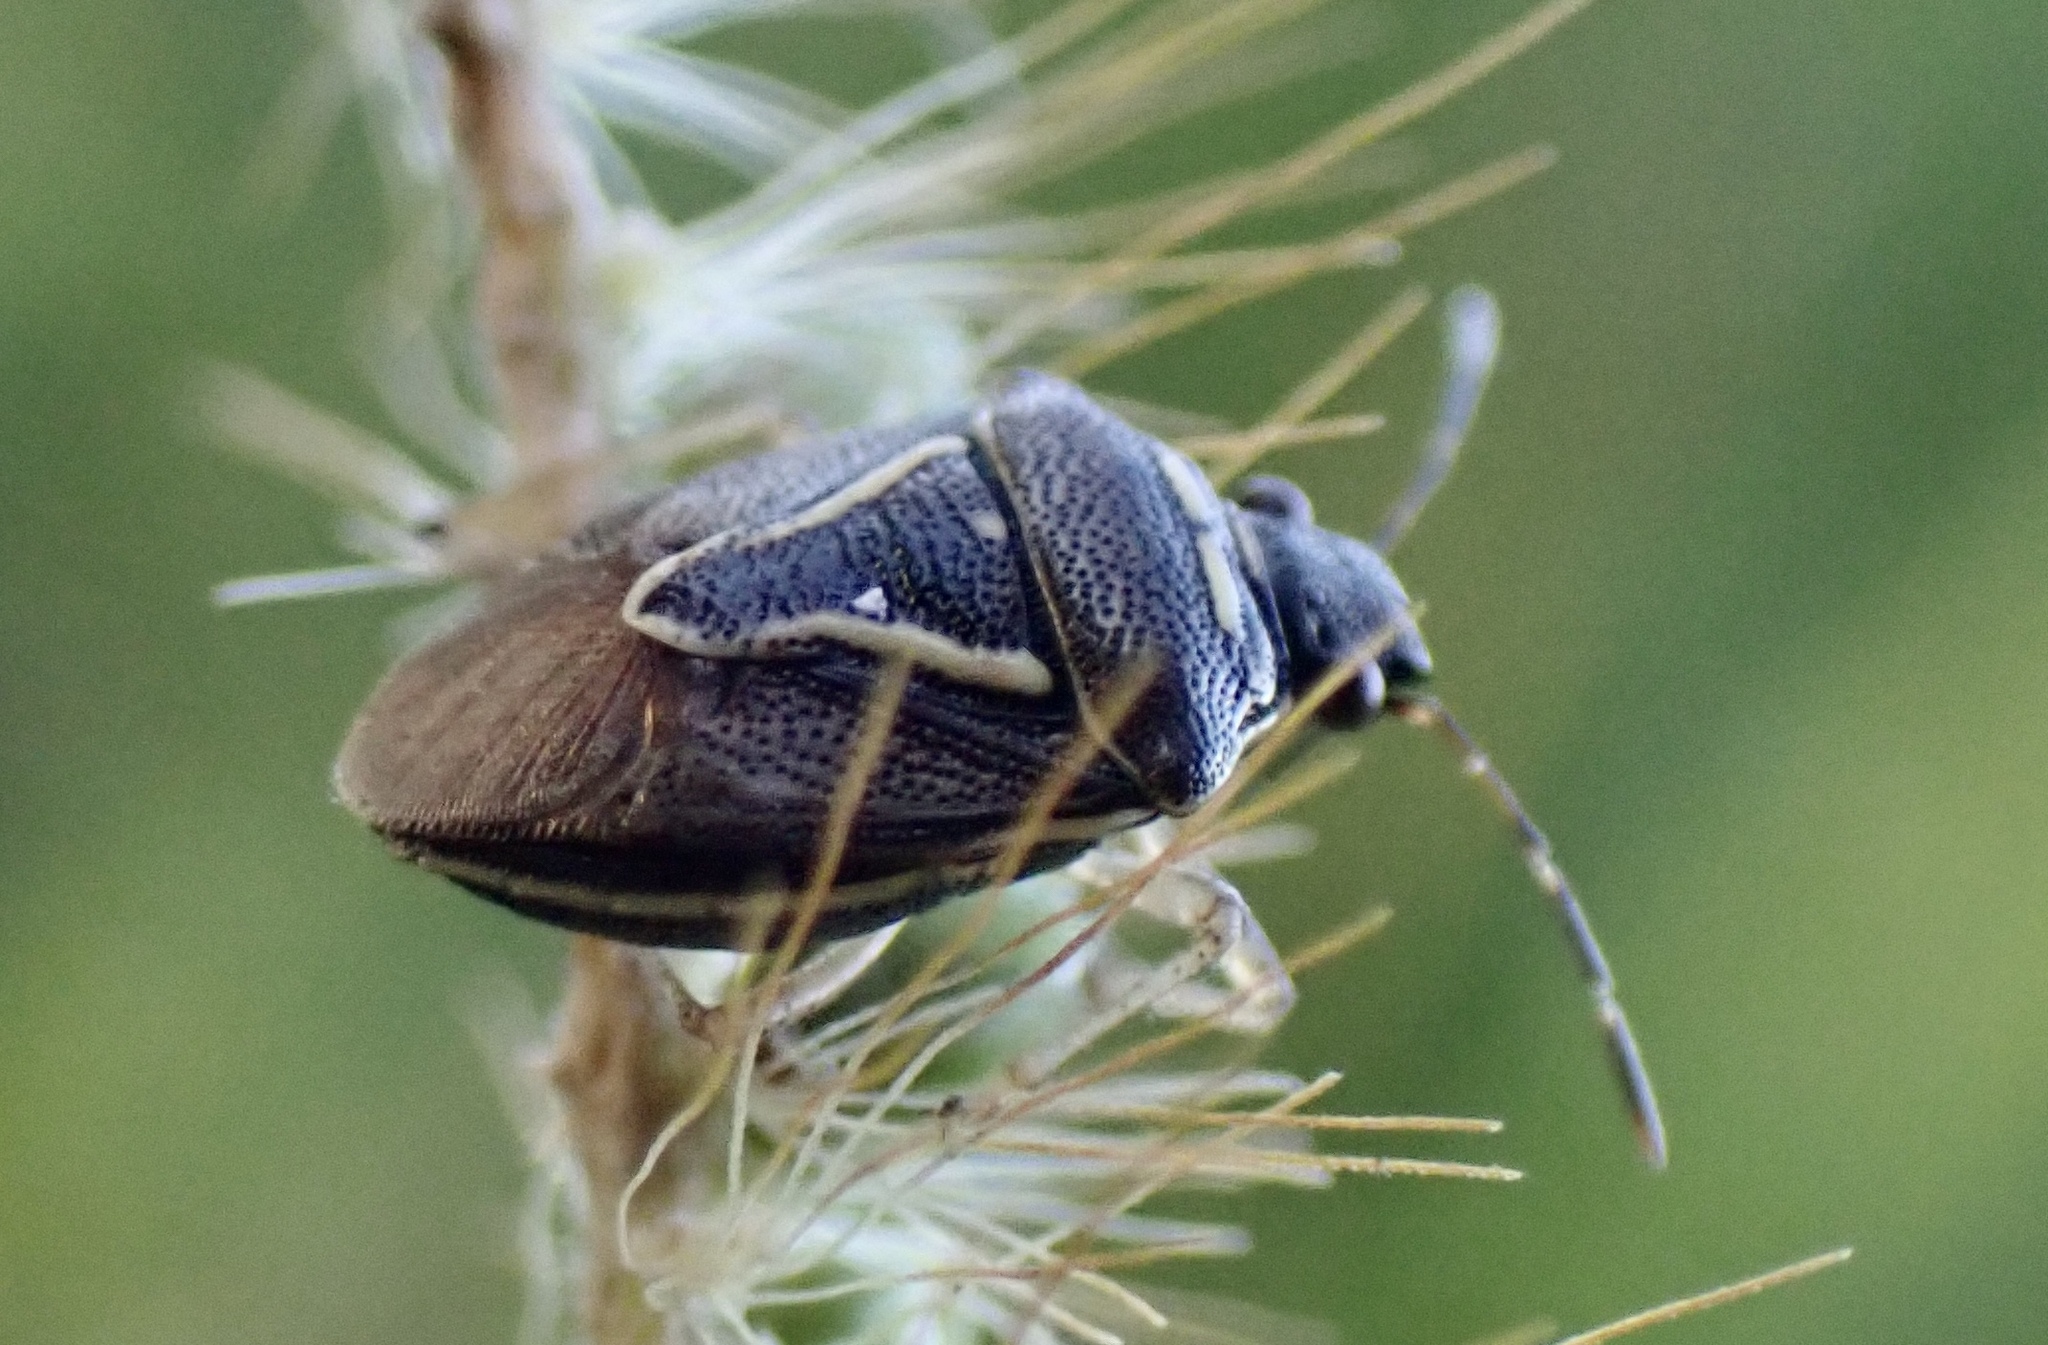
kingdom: Animalia
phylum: Arthropoda
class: Insecta
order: Hemiptera
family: Pentatomidae
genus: Mormidea
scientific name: Mormidea lugens
